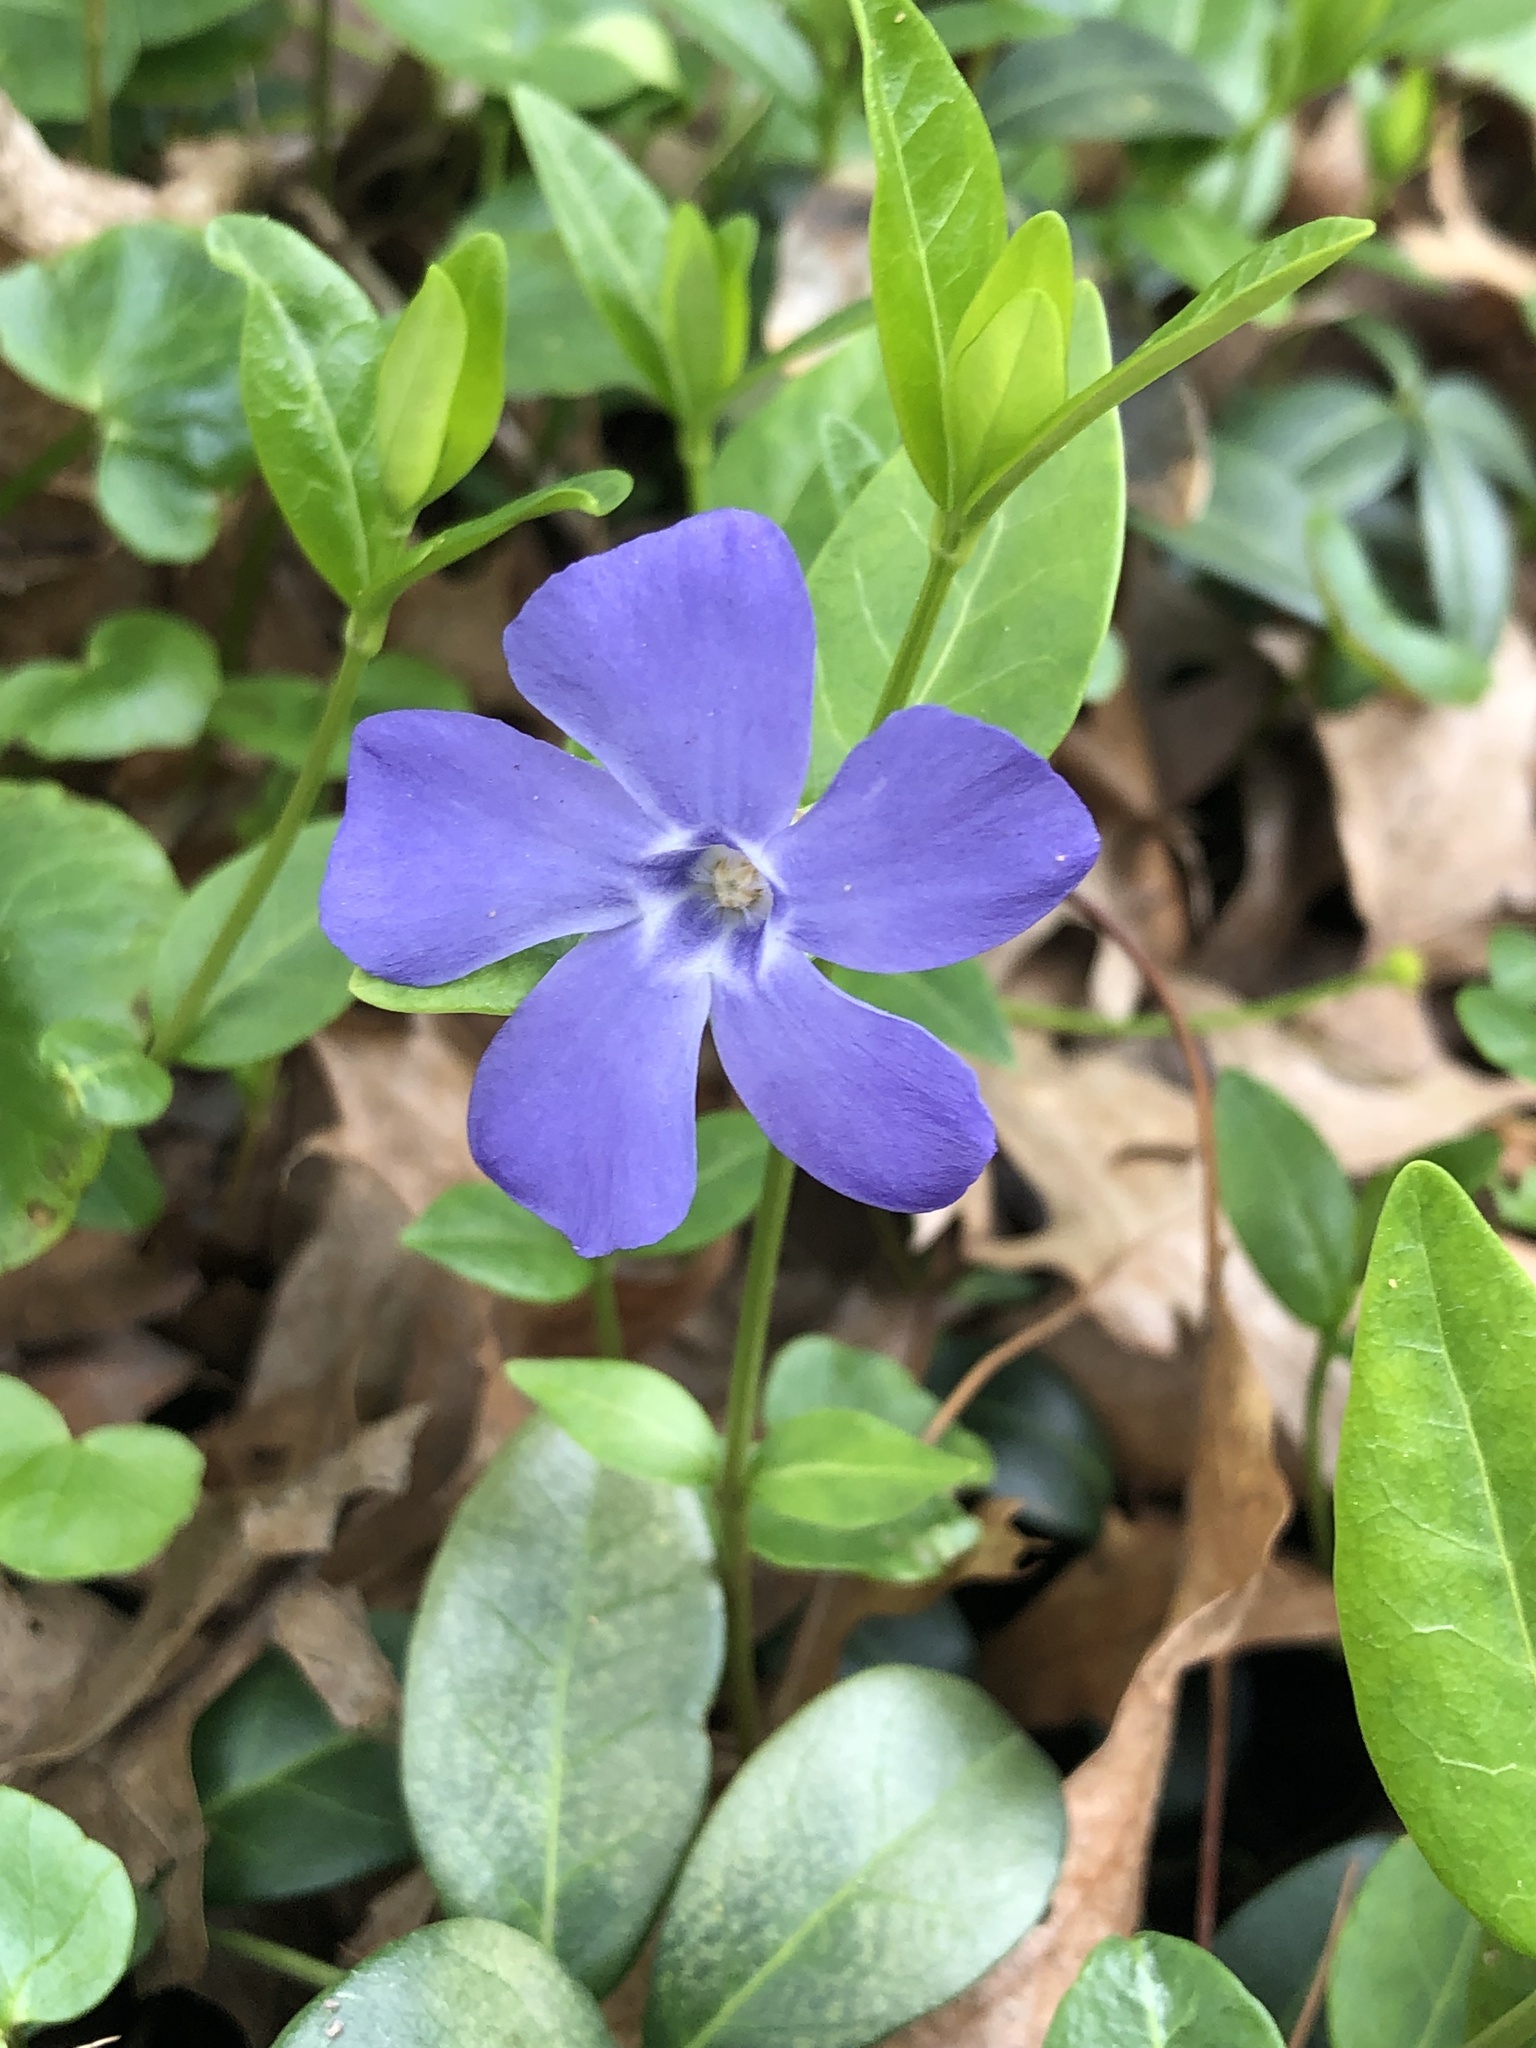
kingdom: Plantae
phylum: Tracheophyta
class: Magnoliopsida
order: Gentianales
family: Apocynaceae
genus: Vinca
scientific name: Vinca minor
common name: Lesser periwinkle
